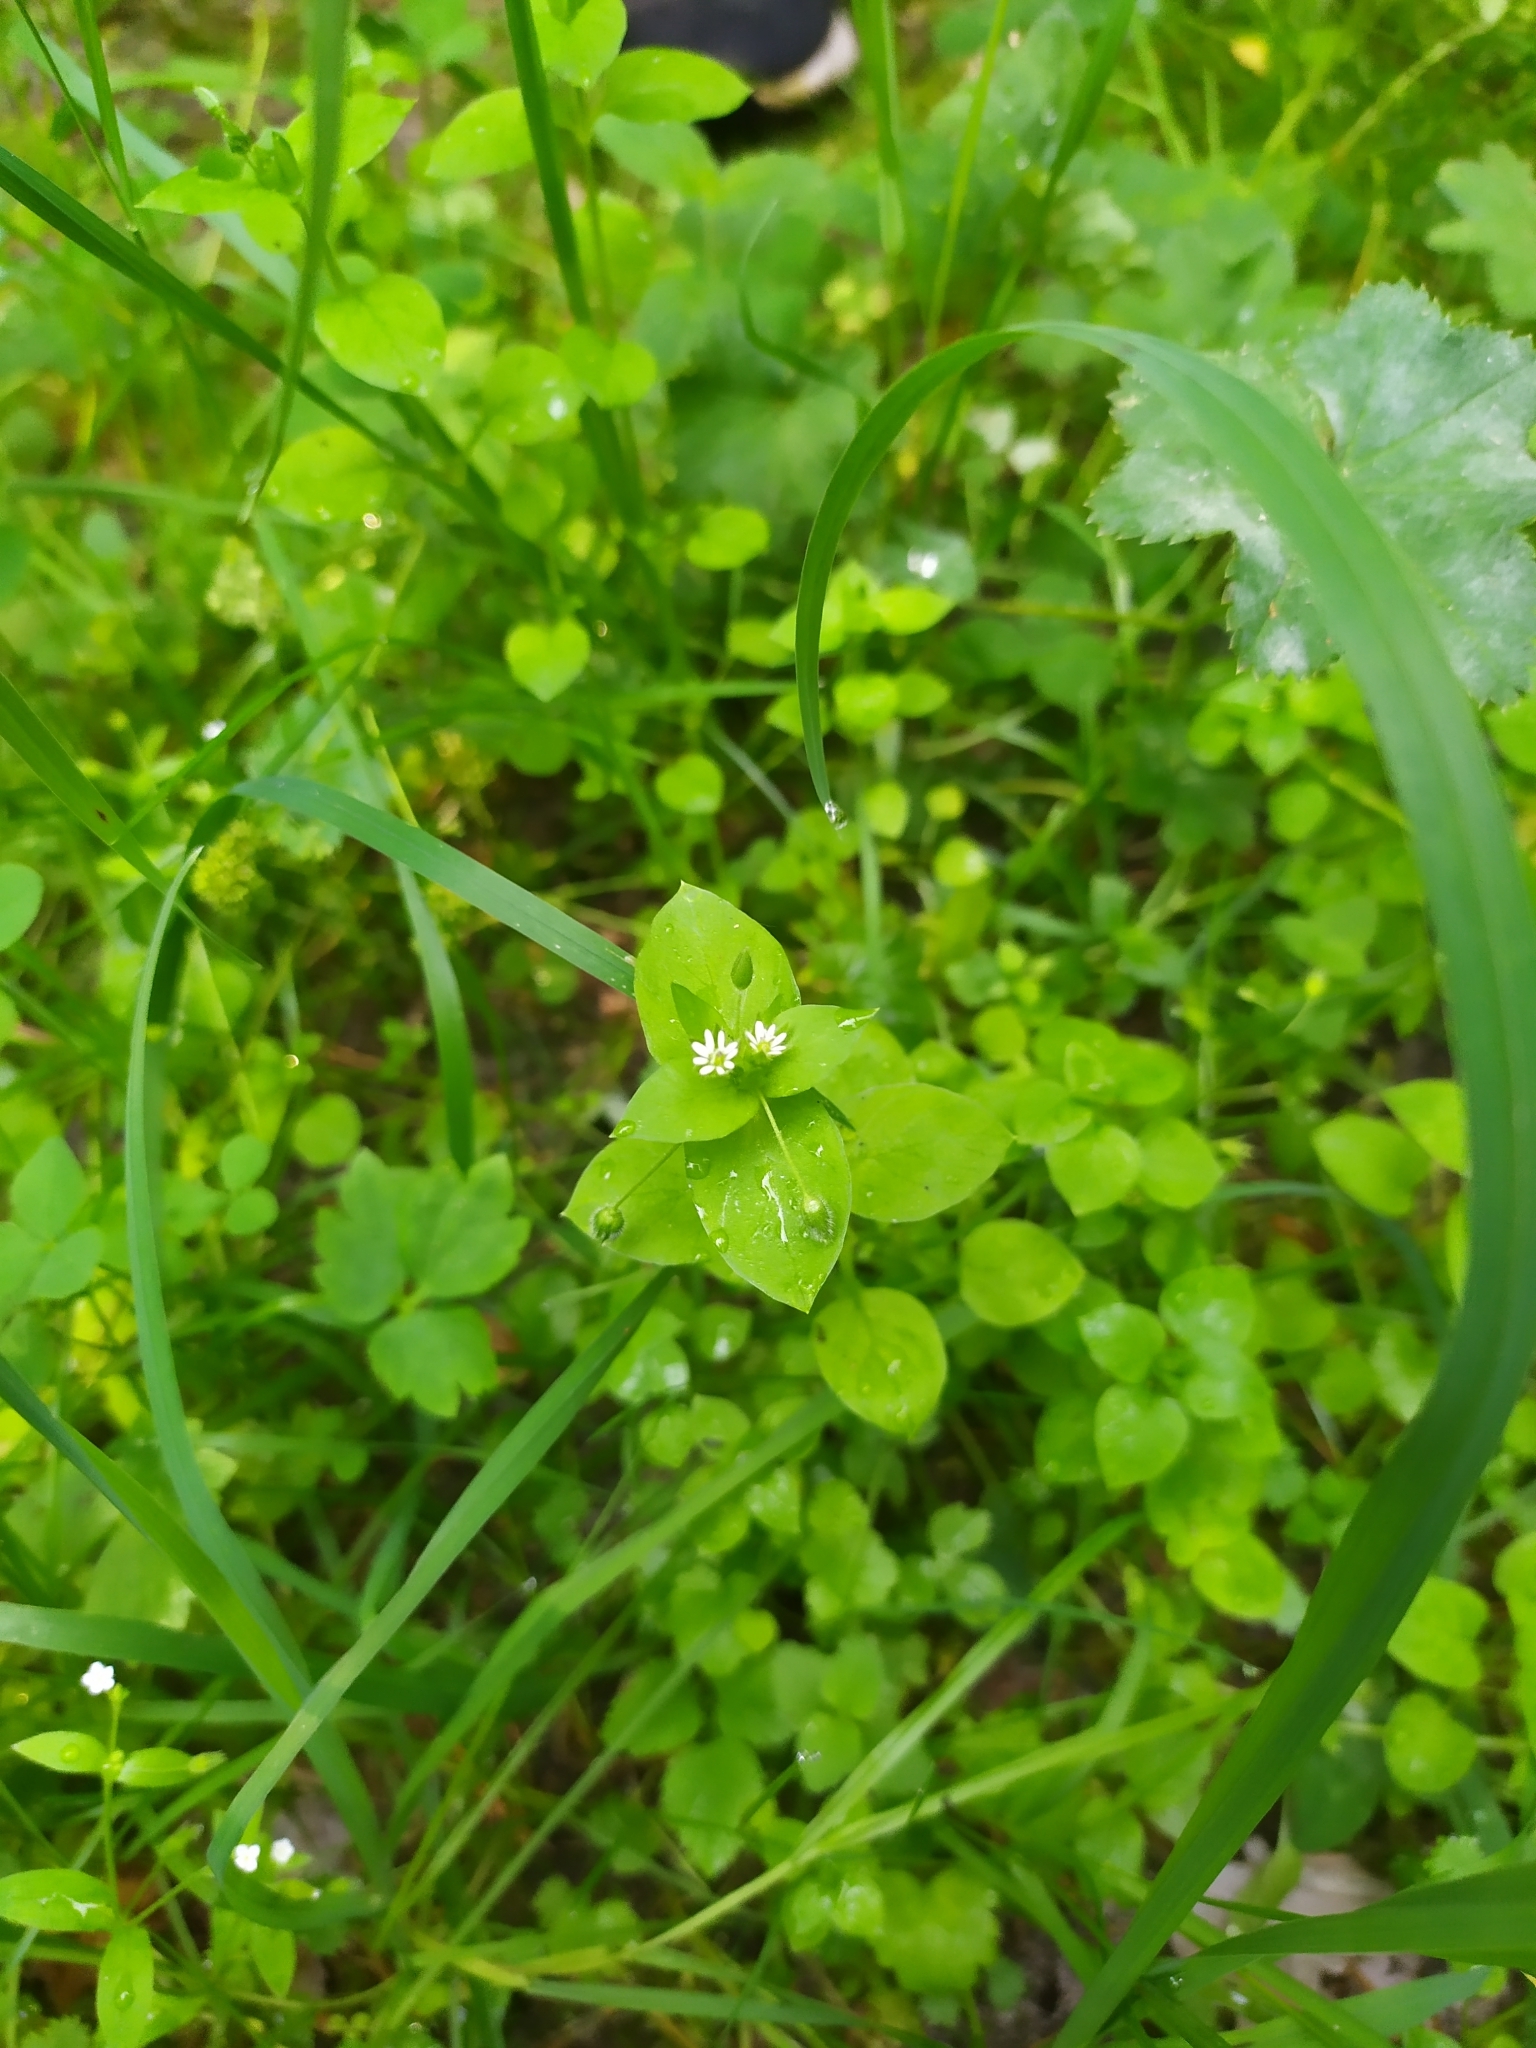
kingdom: Plantae
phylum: Tracheophyta
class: Magnoliopsida
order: Caryophyllales
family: Caryophyllaceae
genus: Stellaria
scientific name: Stellaria media
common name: Common chickweed
